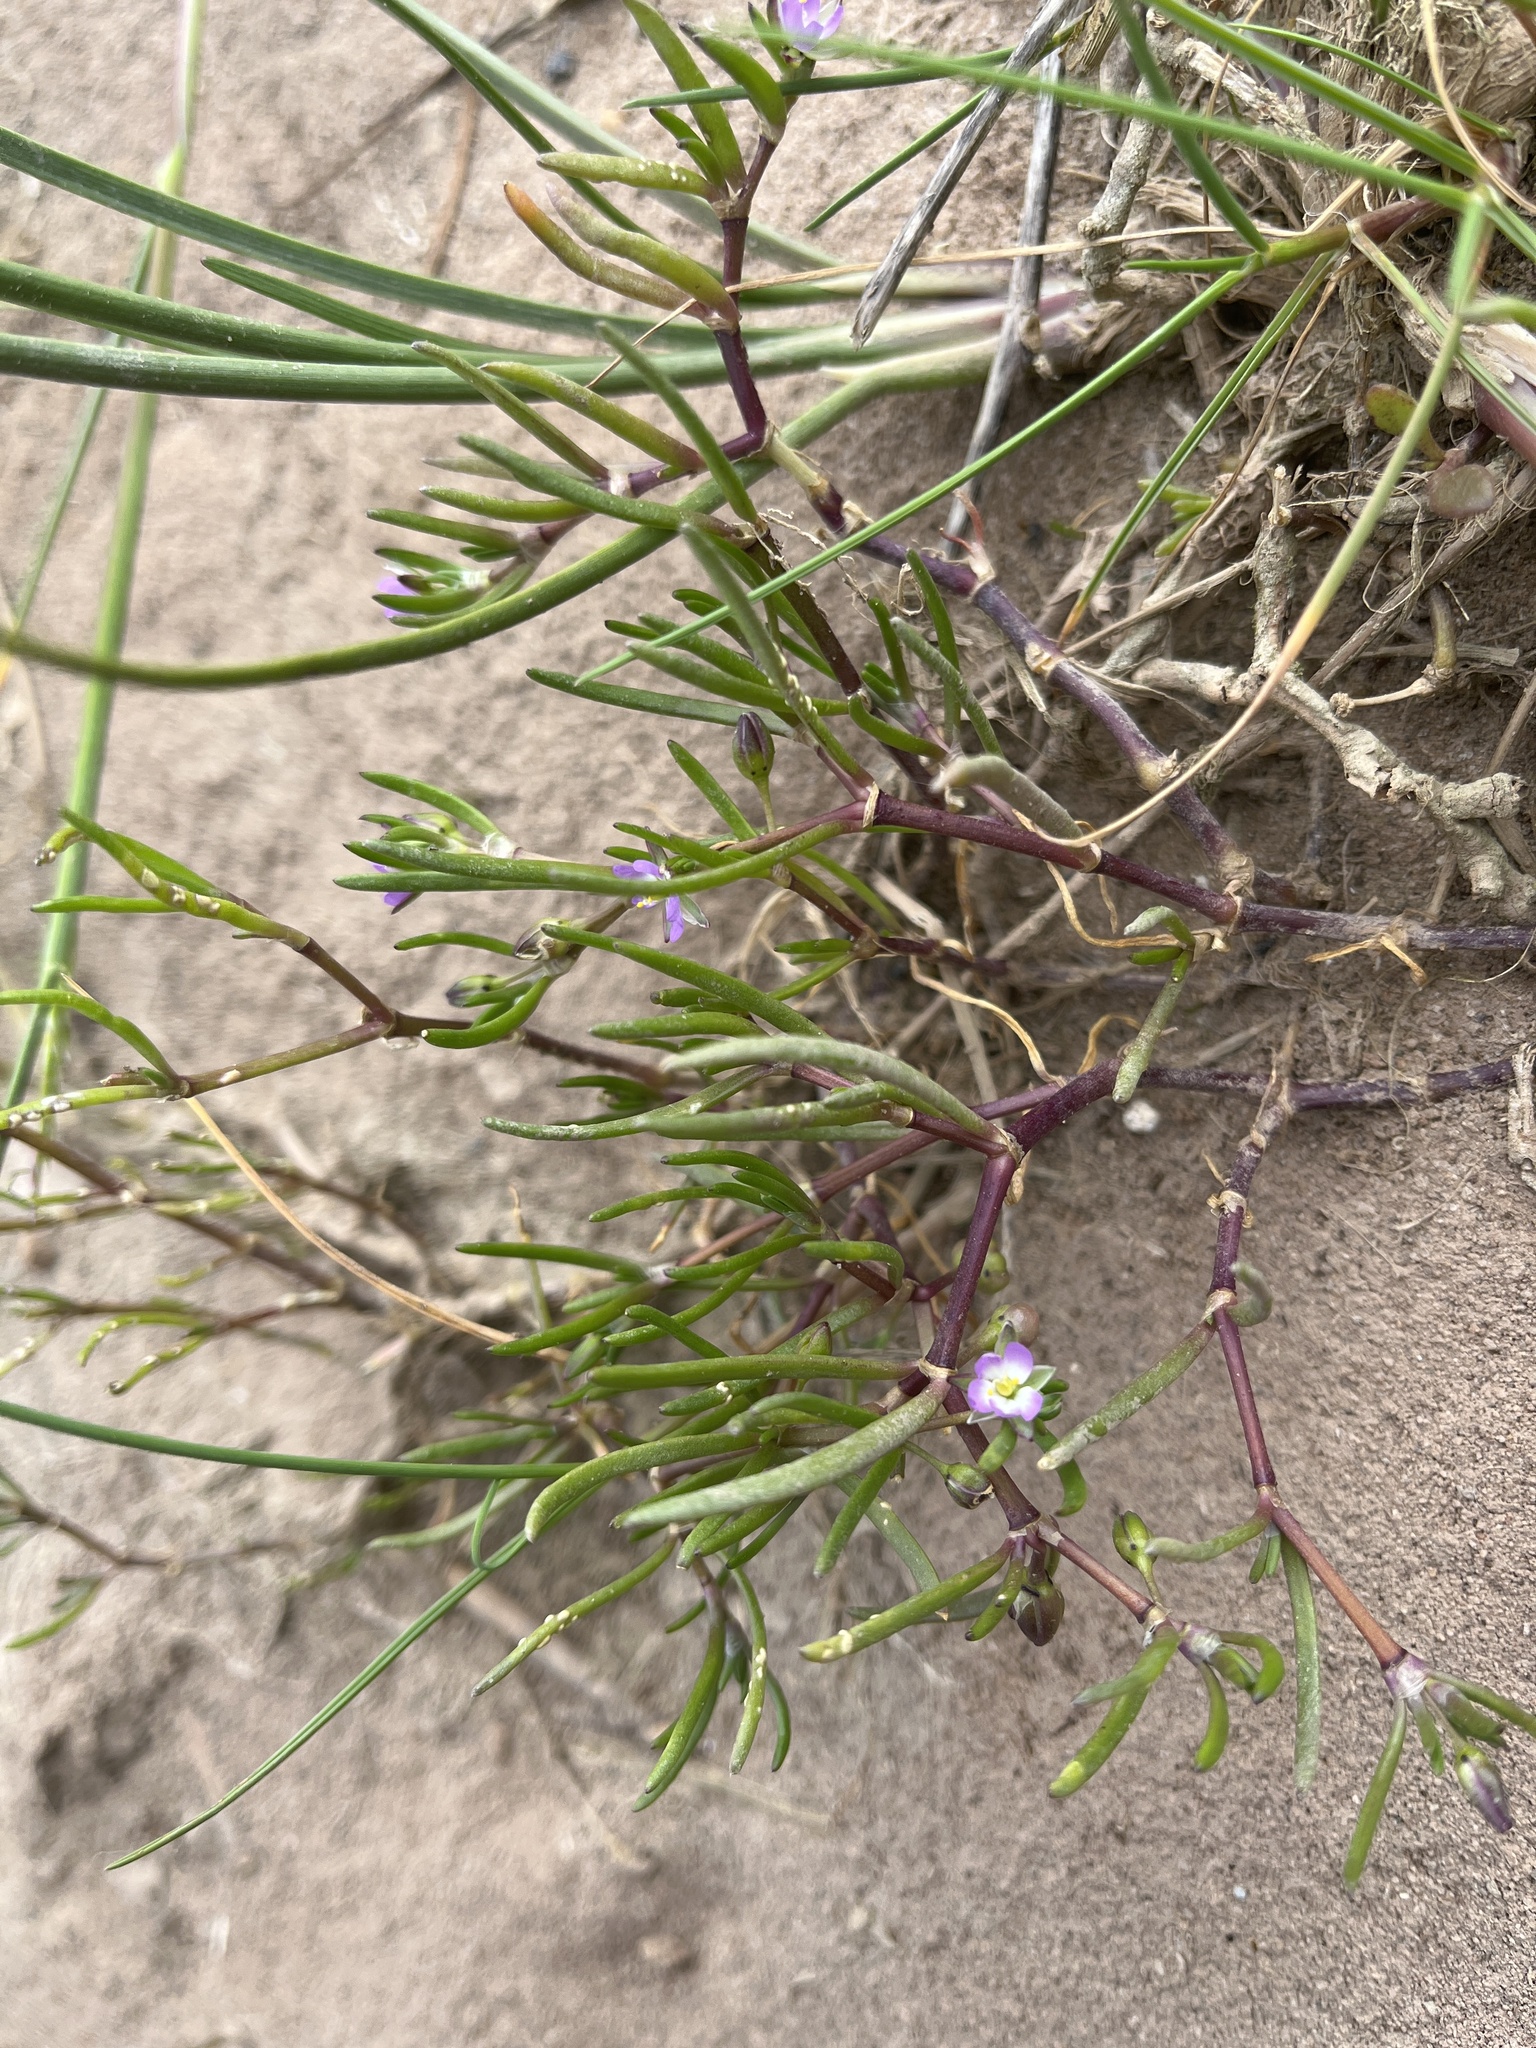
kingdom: Plantae
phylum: Tracheophyta
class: Magnoliopsida
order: Caryophyllales
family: Caryophyllaceae
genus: Spergularia
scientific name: Spergularia marina
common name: Lesser sea-spurrey
